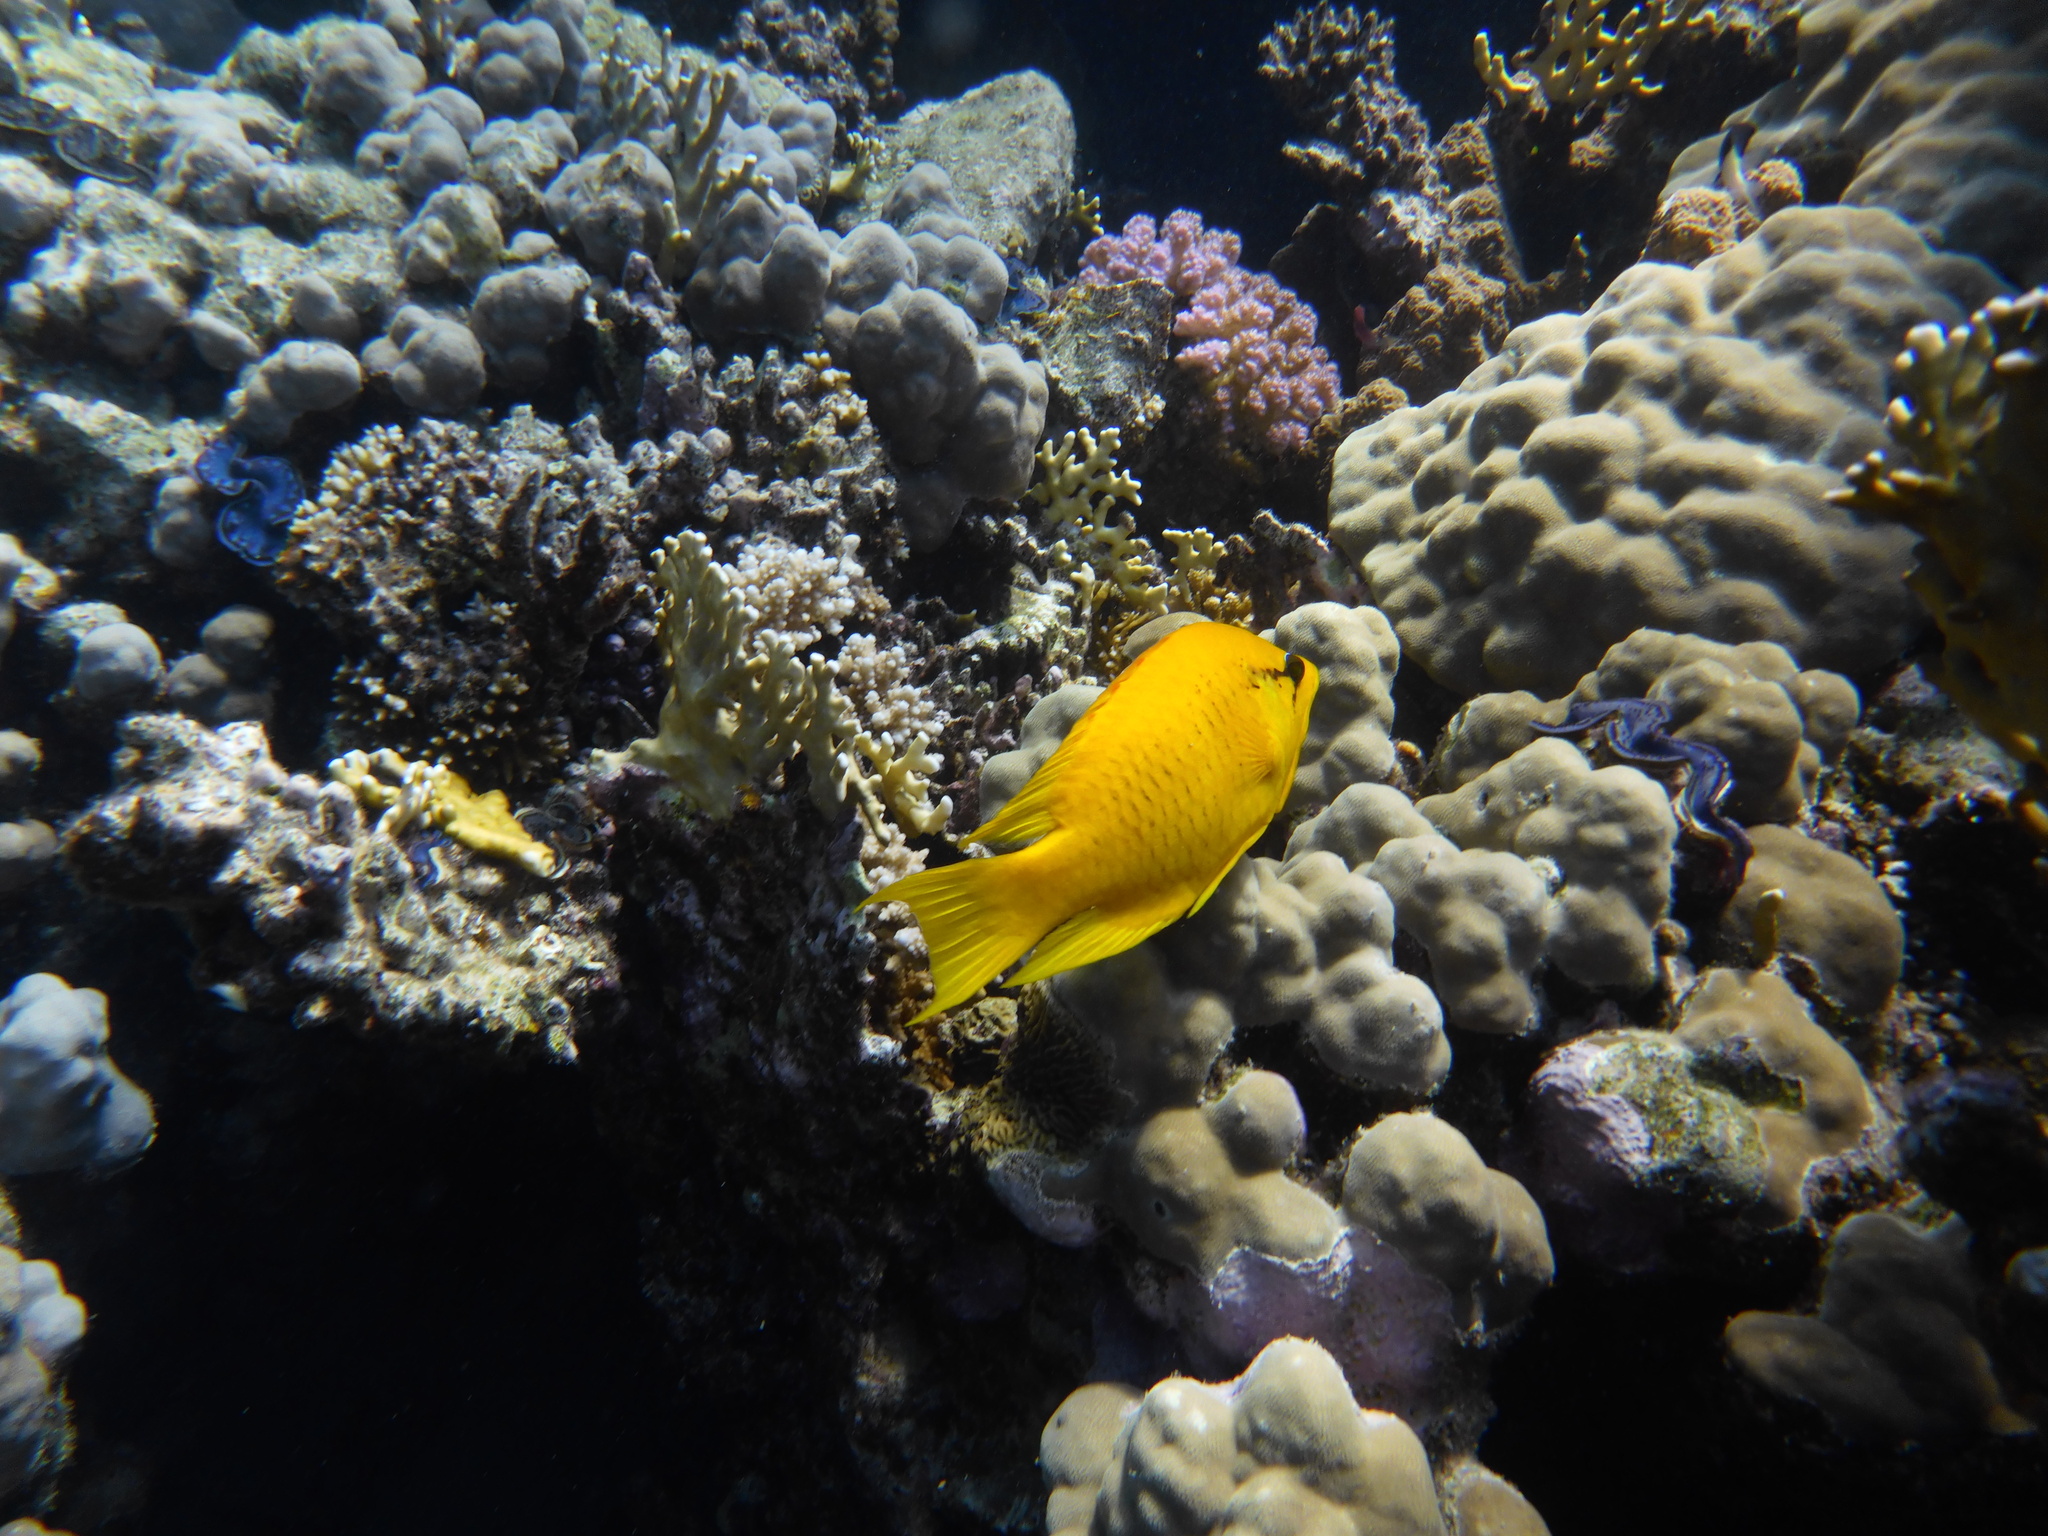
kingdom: Animalia
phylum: Chordata
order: Perciformes
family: Labridae
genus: Epibulus
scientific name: Epibulus insidiator
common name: Slingjaw wrasse
